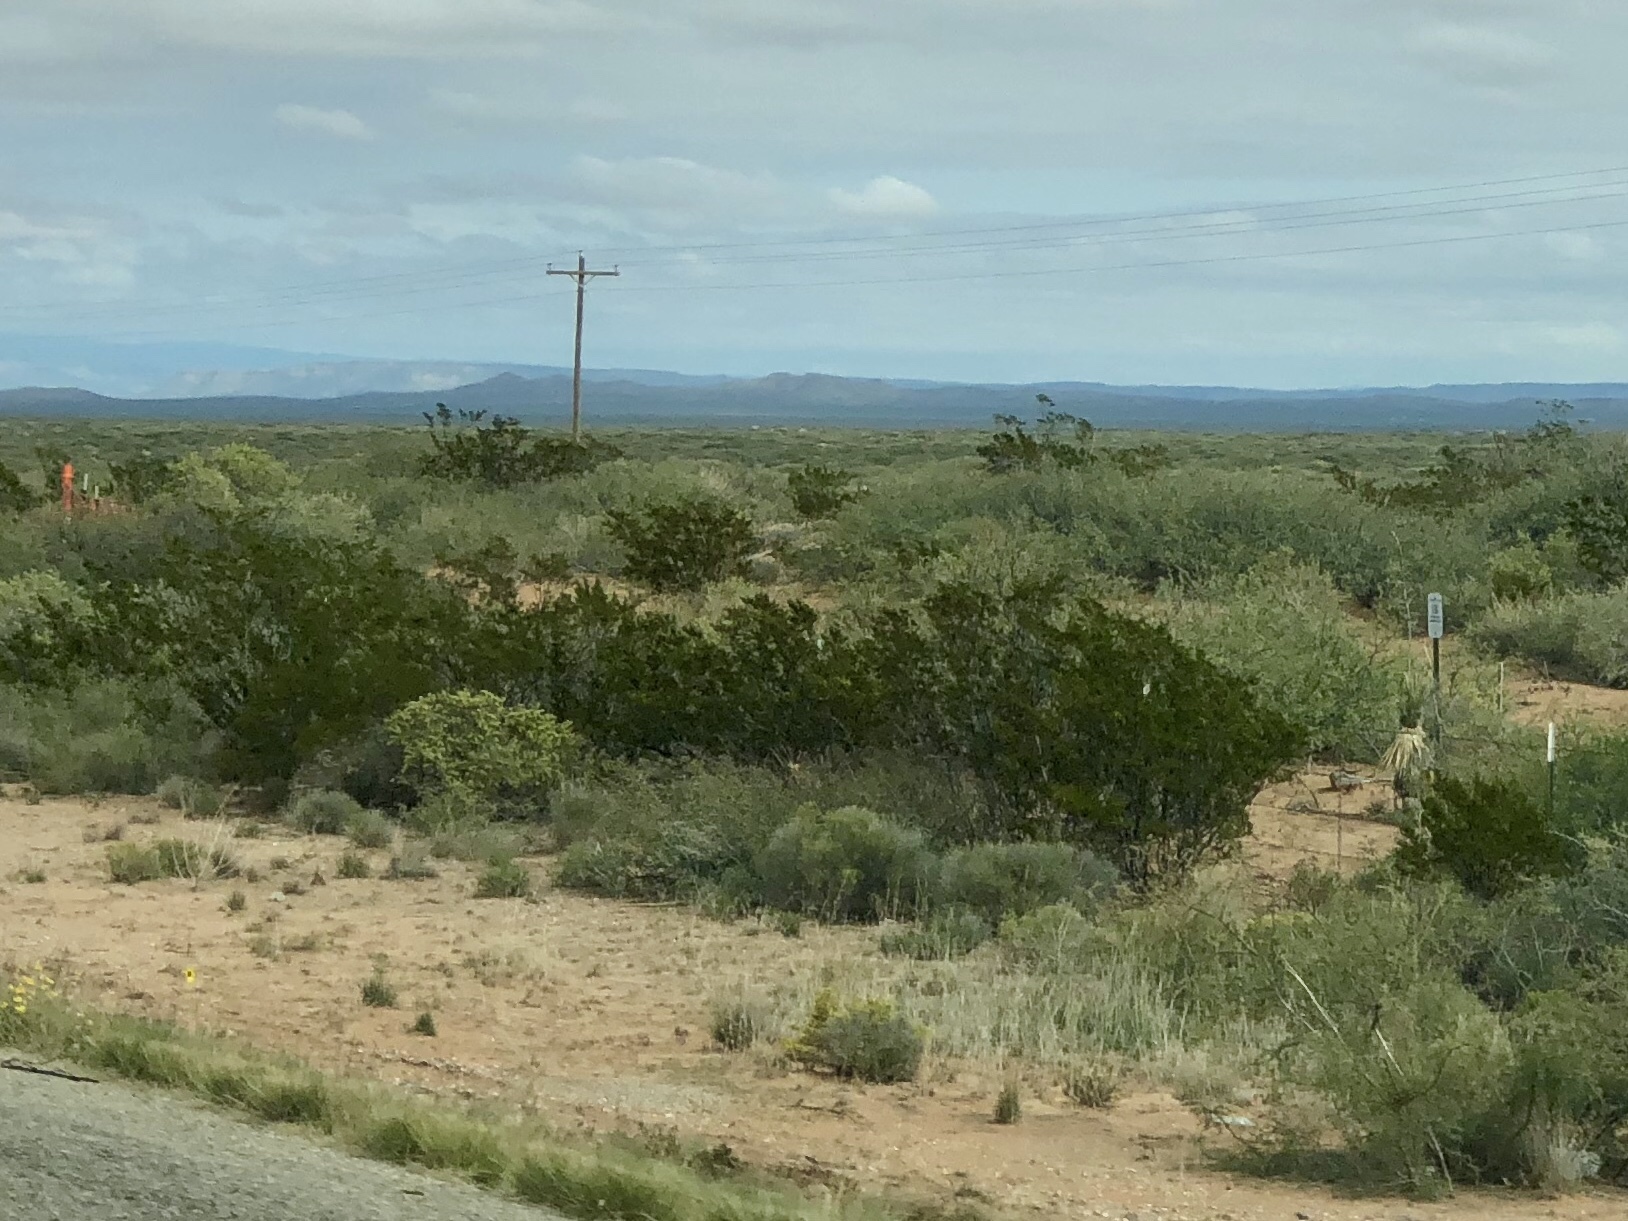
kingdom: Plantae
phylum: Tracheophyta
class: Magnoliopsida
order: Zygophyllales
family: Zygophyllaceae
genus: Larrea
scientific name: Larrea tridentata
